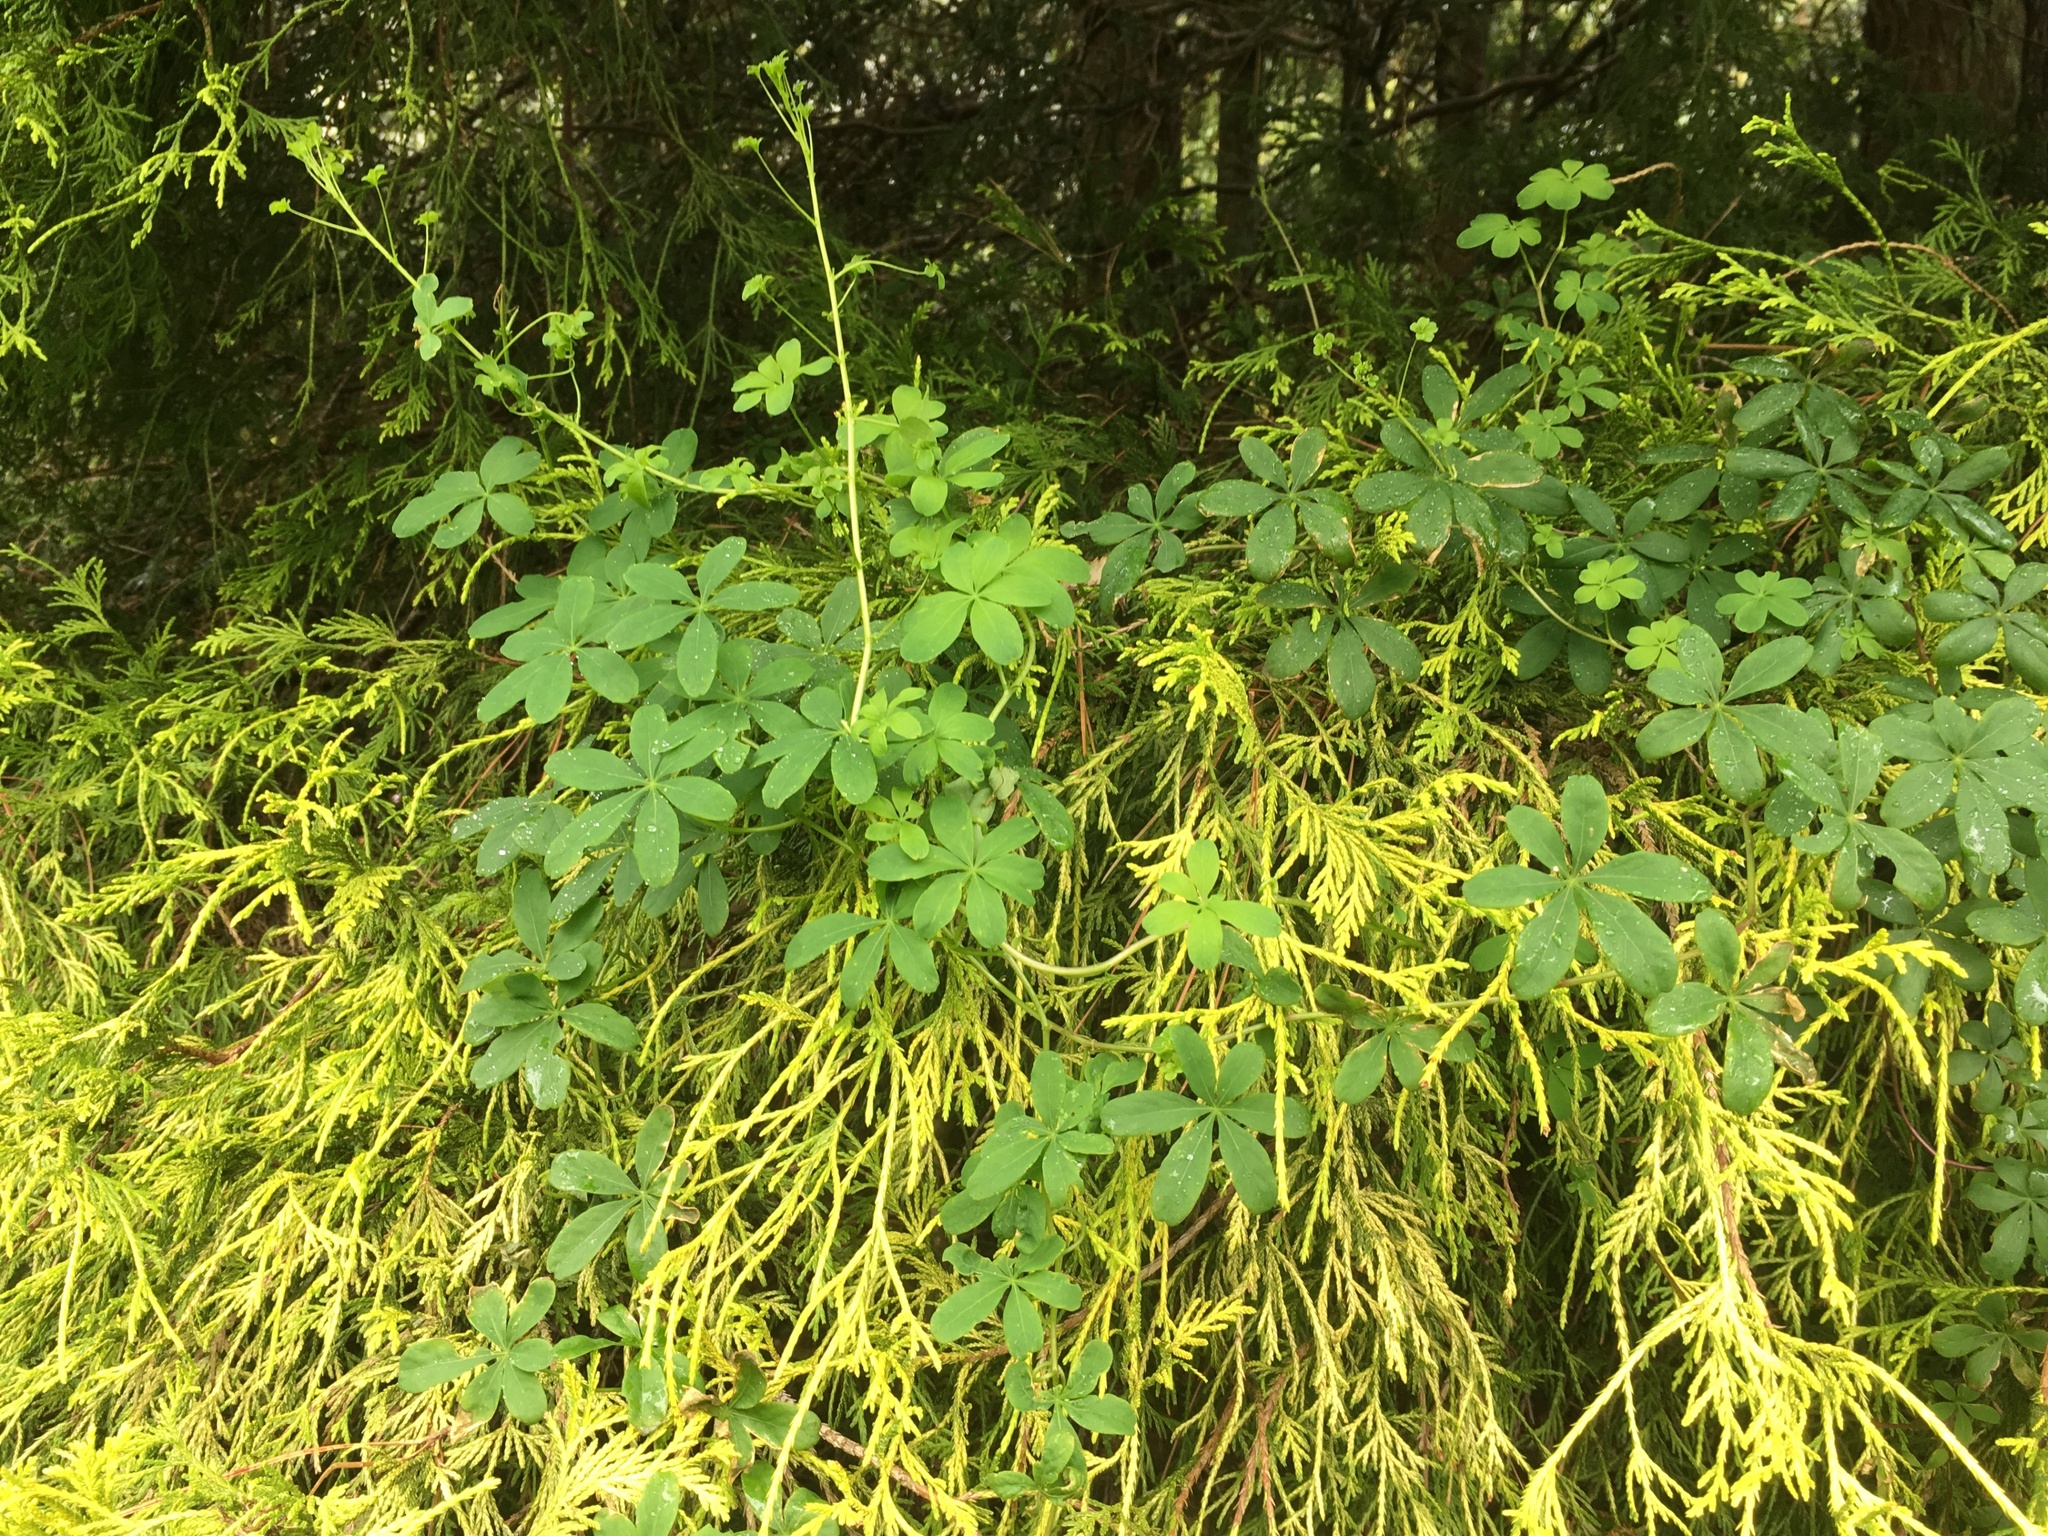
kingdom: Plantae
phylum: Tracheophyta
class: Magnoliopsida
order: Brassicales
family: Tropaeolaceae
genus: Tropaeolum
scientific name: Tropaeolum speciosum
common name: Flame nasturtium
